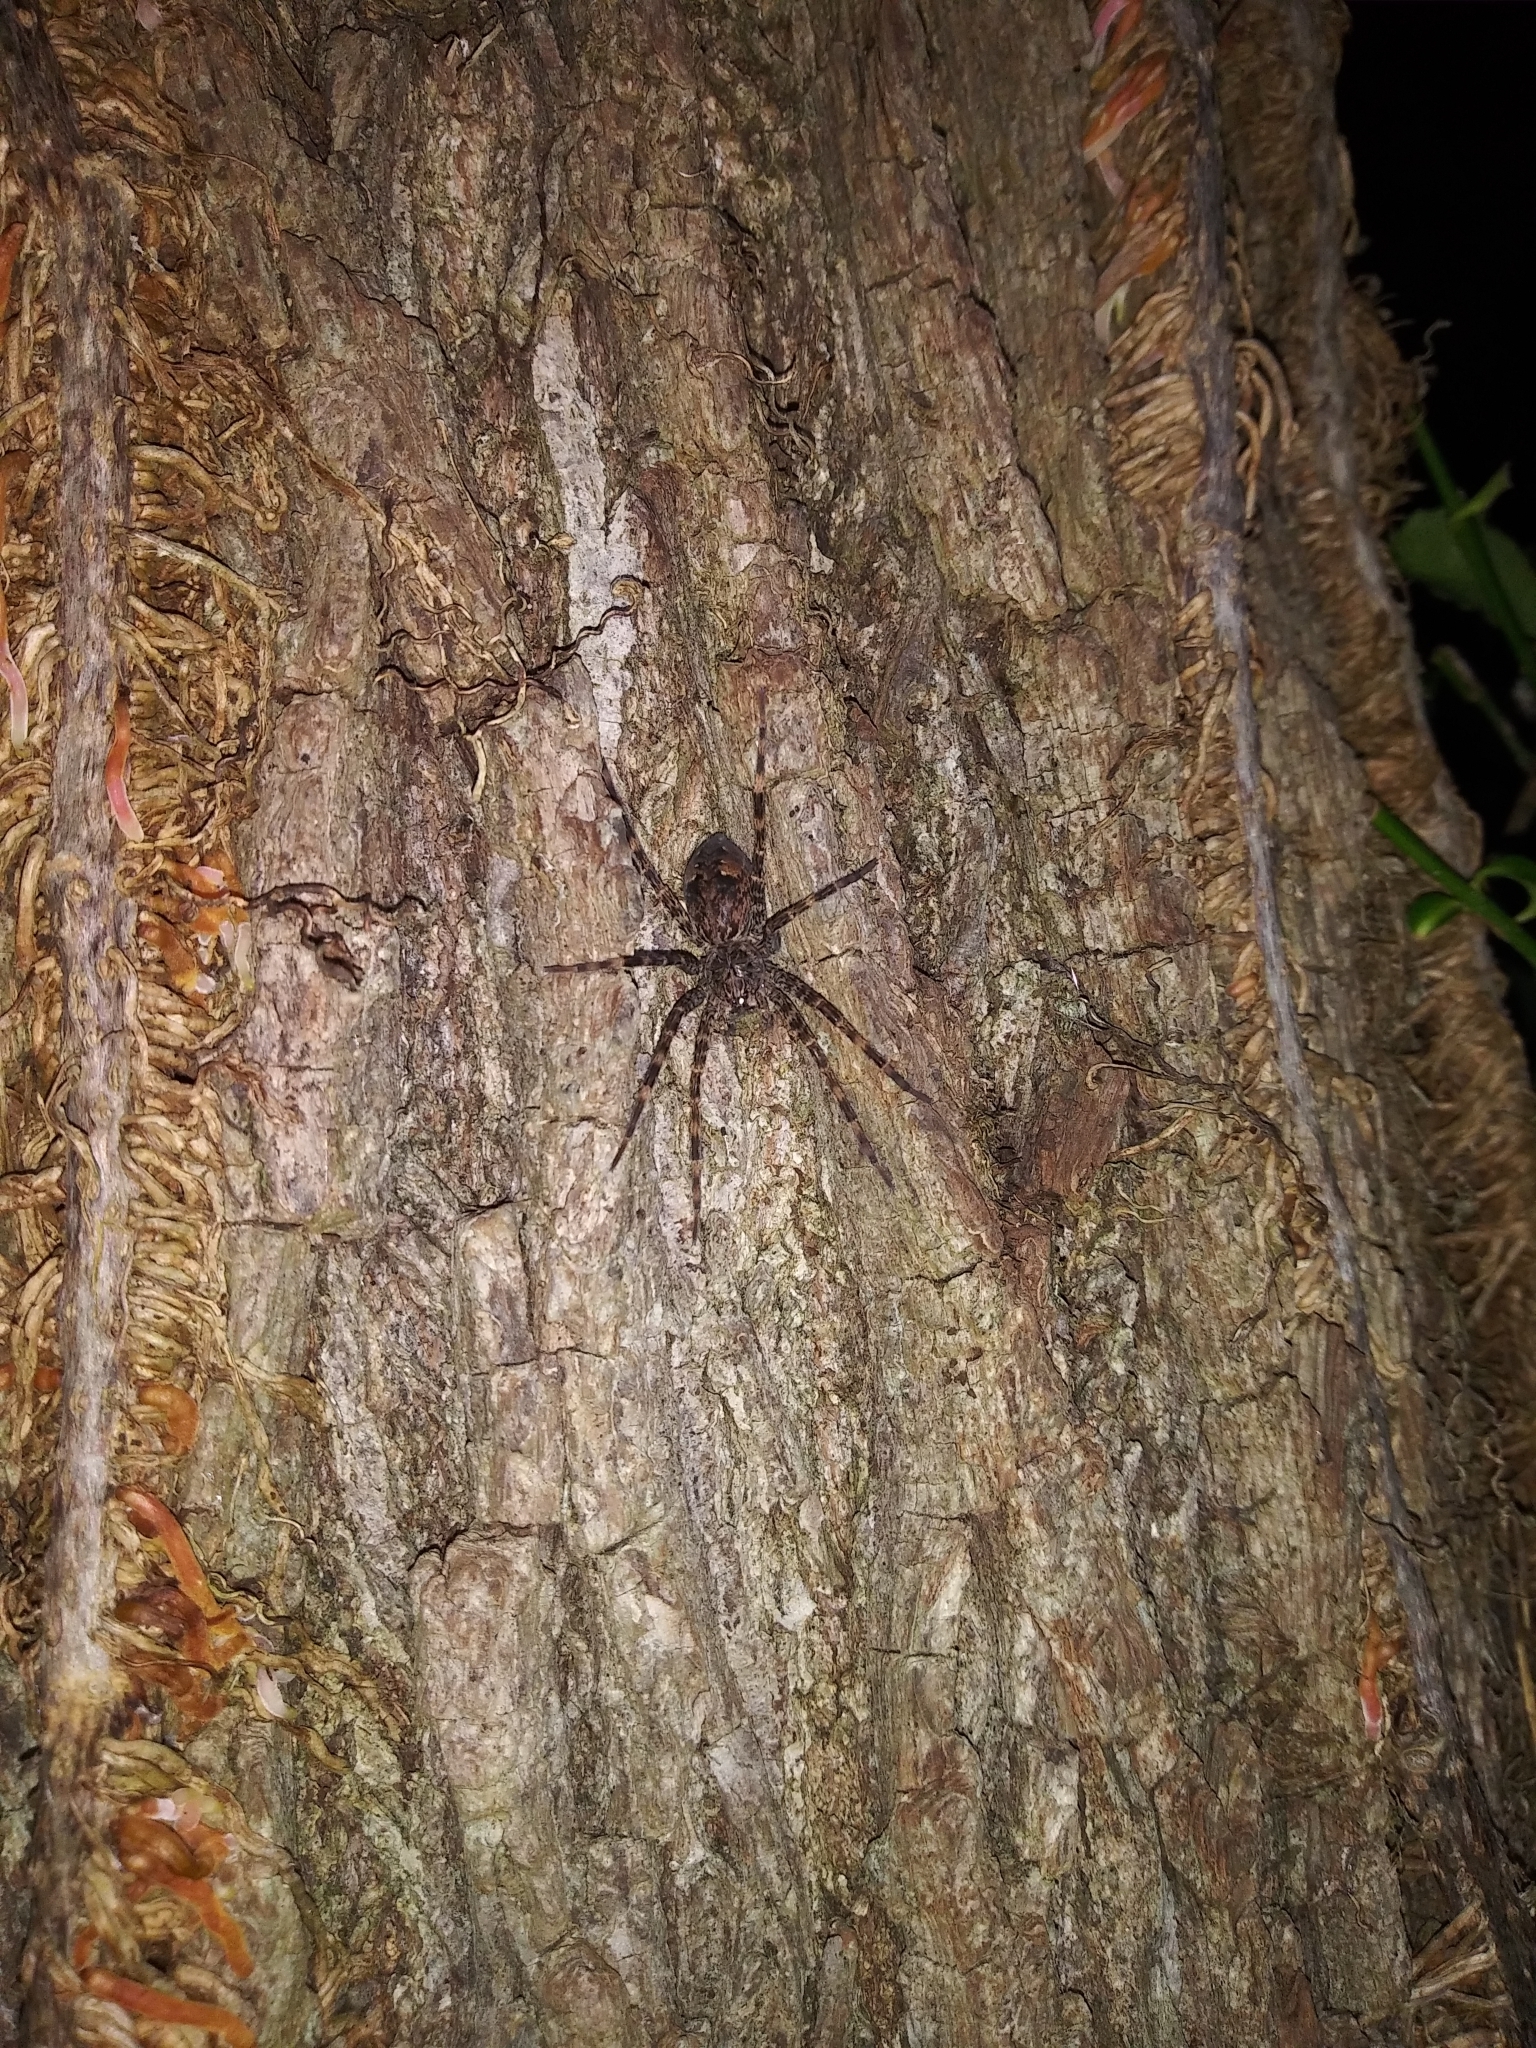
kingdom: Animalia
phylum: Arthropoda
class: Arachnida
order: Araneae
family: Pisauridae
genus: Dolomedes
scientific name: Dolomedes tenebrosus
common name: Dark fishing spider
